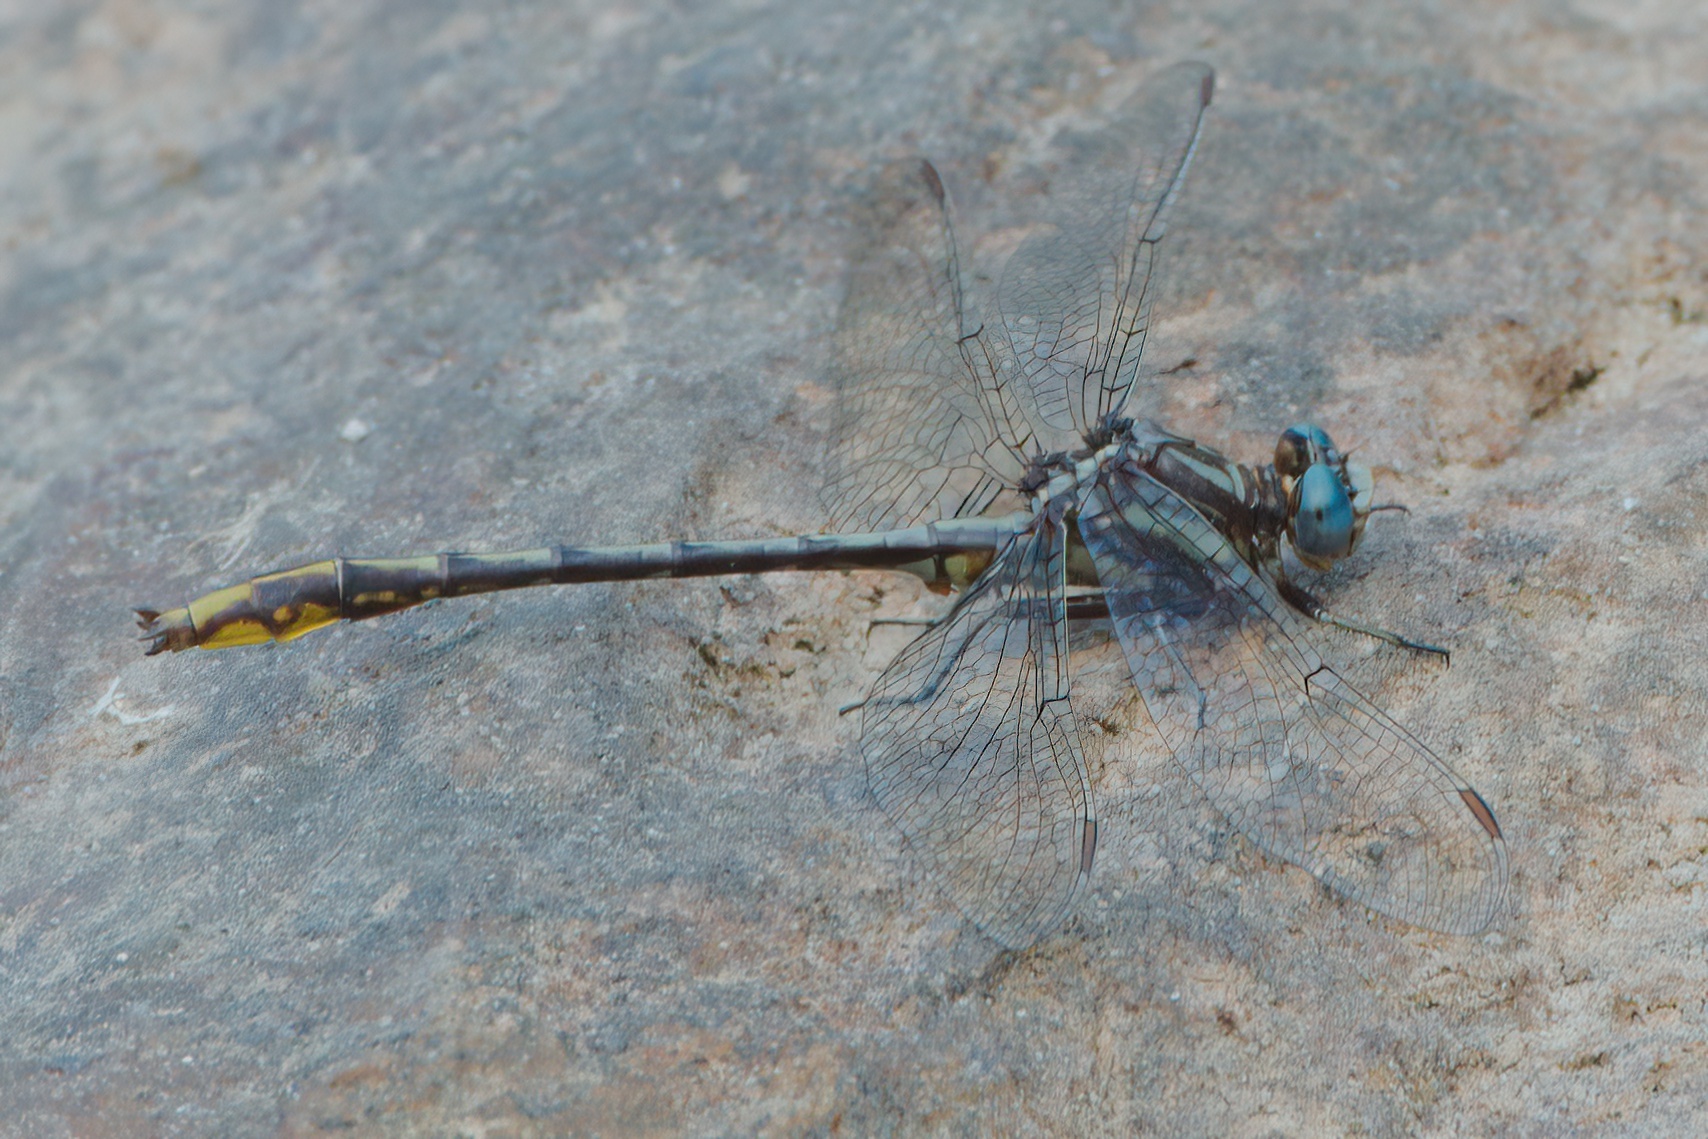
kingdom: Animalia
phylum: Arthropoda
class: Insecta
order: Odonata
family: Gomphidae
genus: Phanogomphus
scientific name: Phanogomphus exilis
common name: Lancet clubtail
